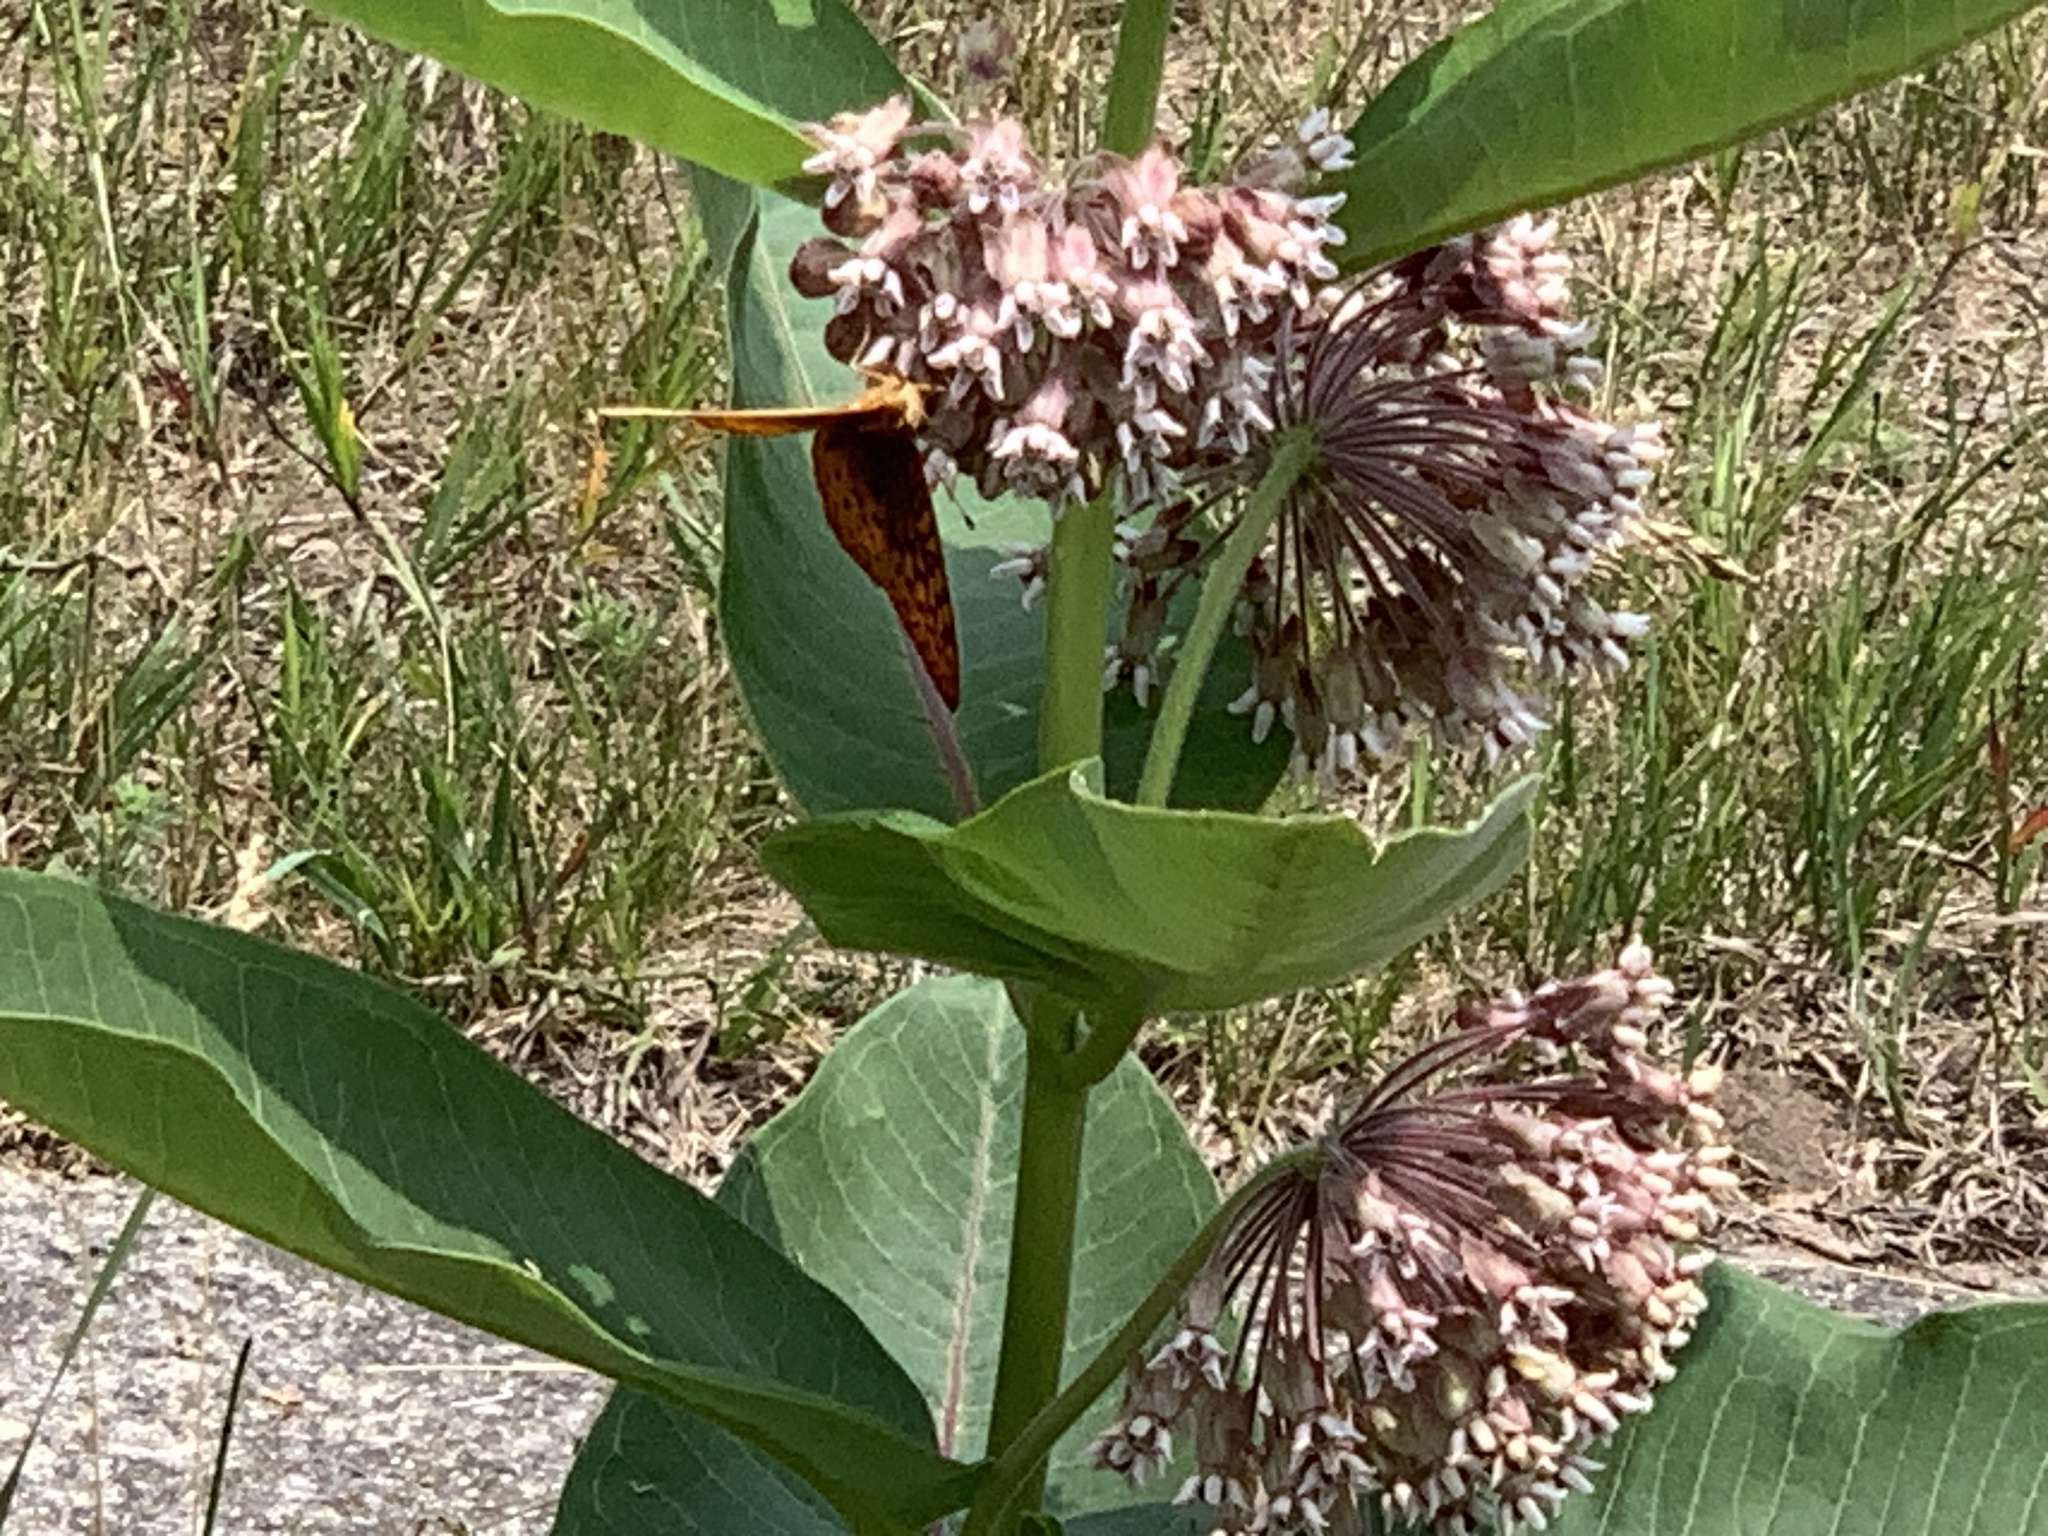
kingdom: Animalia
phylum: Arthropoda
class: Insecta
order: Lepidoptera
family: Nymphalidae
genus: Speyeria
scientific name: Speyeria cybele
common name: Great spangled fritillary
